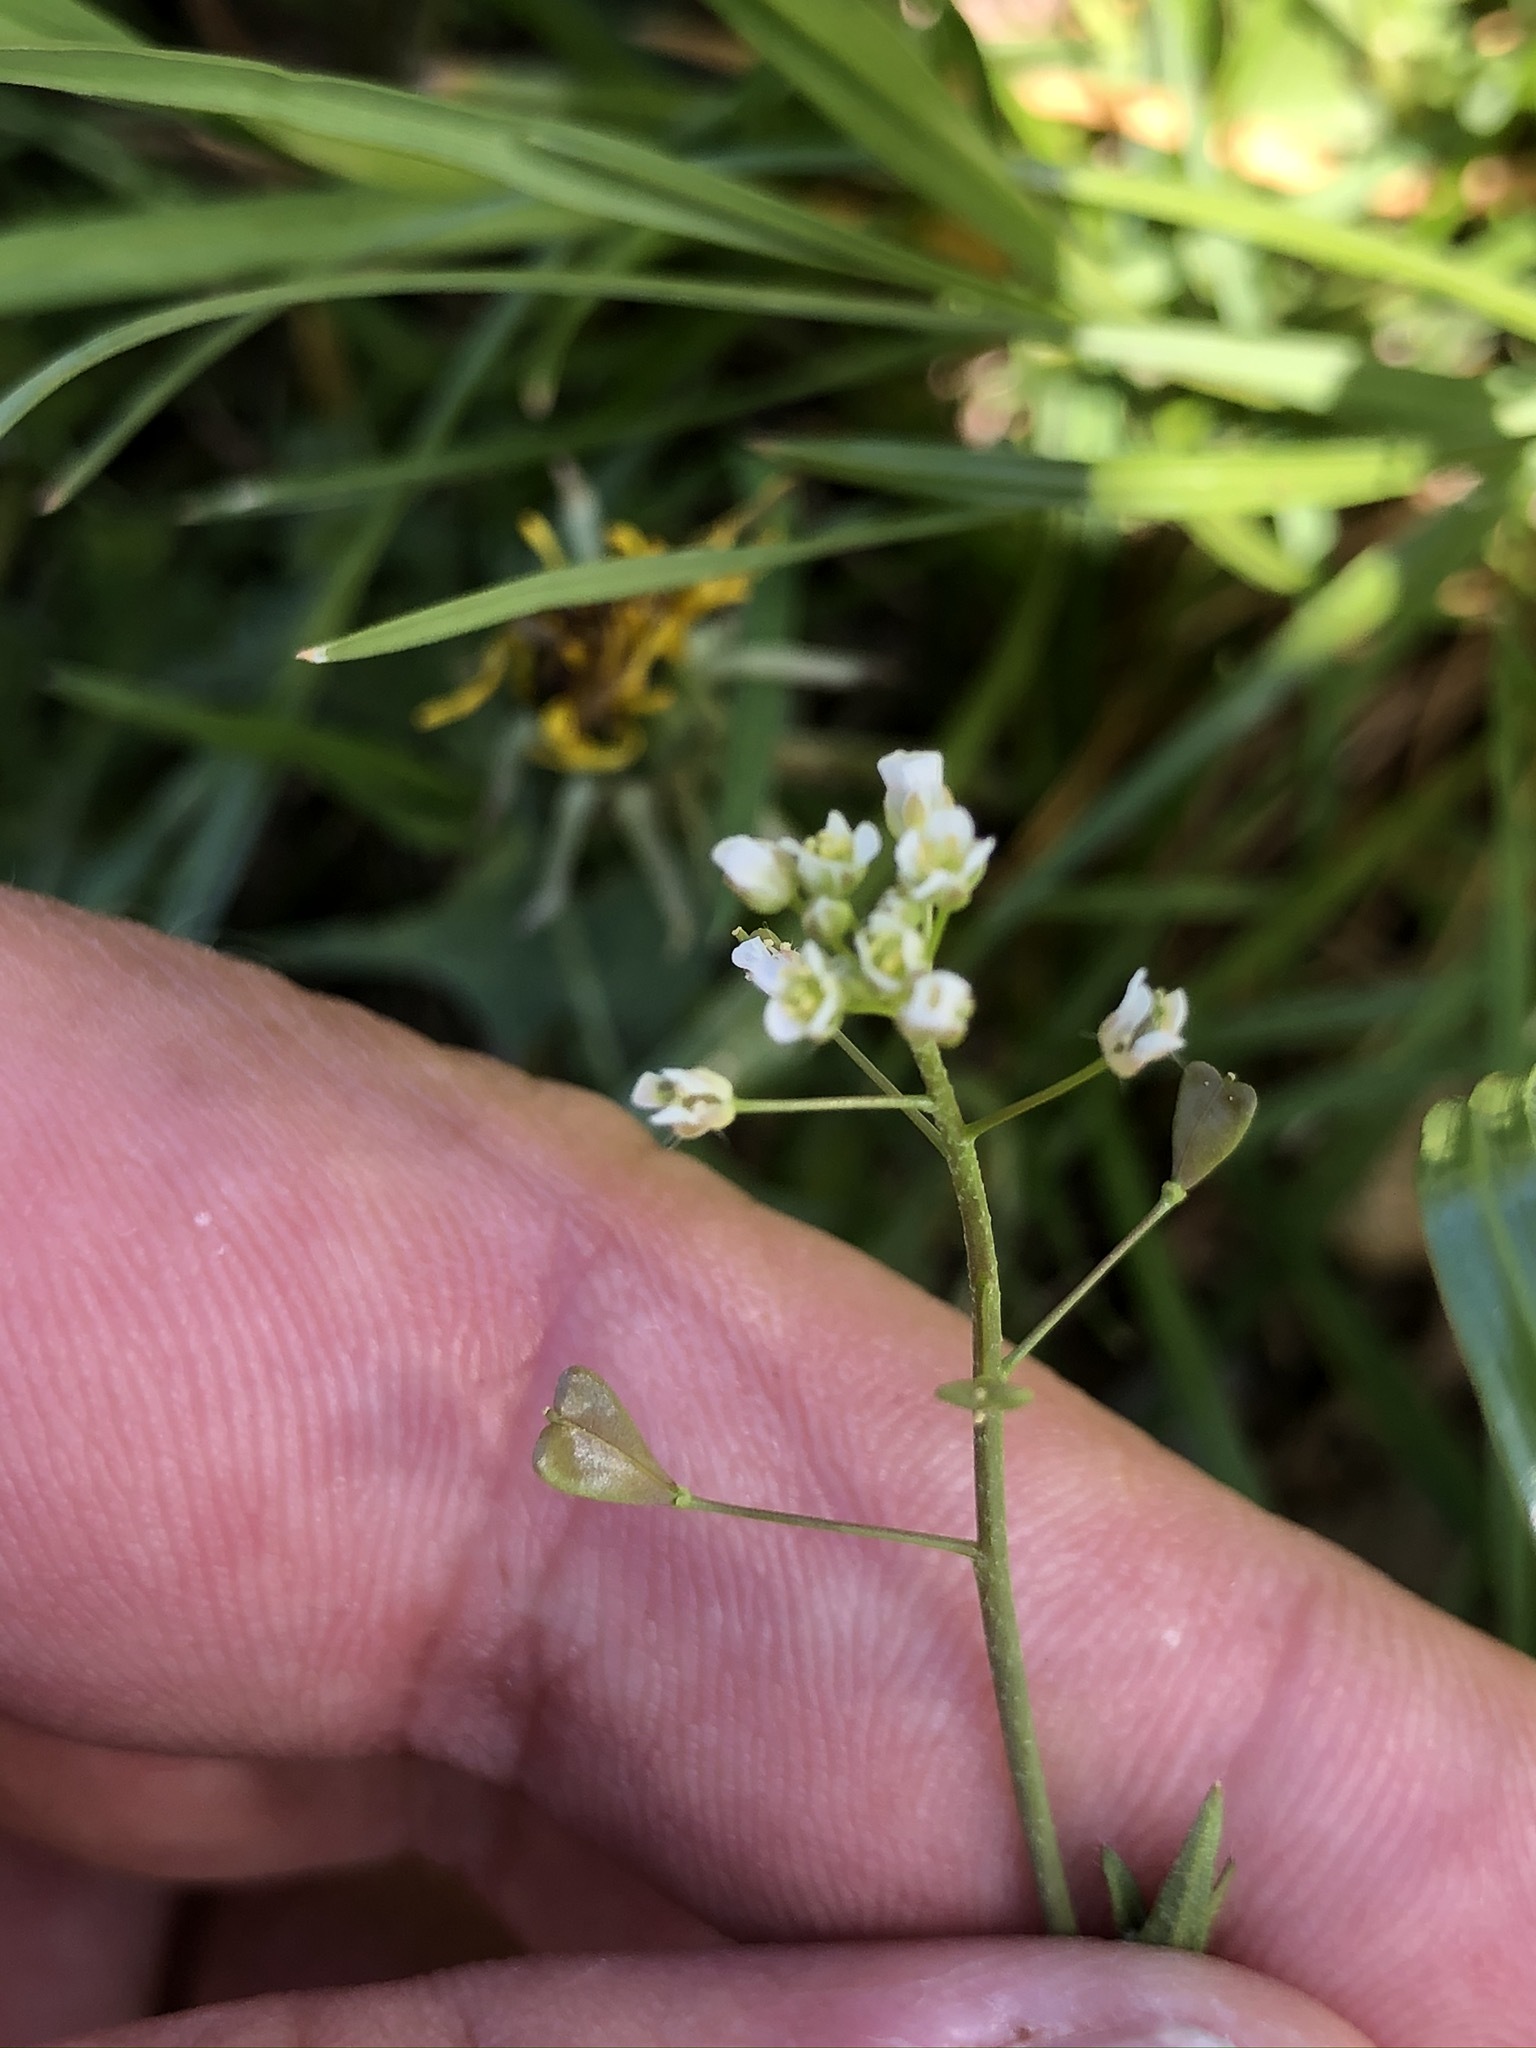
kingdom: Plantae
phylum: Tracheophyta
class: Magnoliopsida
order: Brassicales
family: Brassicaceae
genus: Capsella
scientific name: Capsella bursa-pastoris
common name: Shepherd's purse
